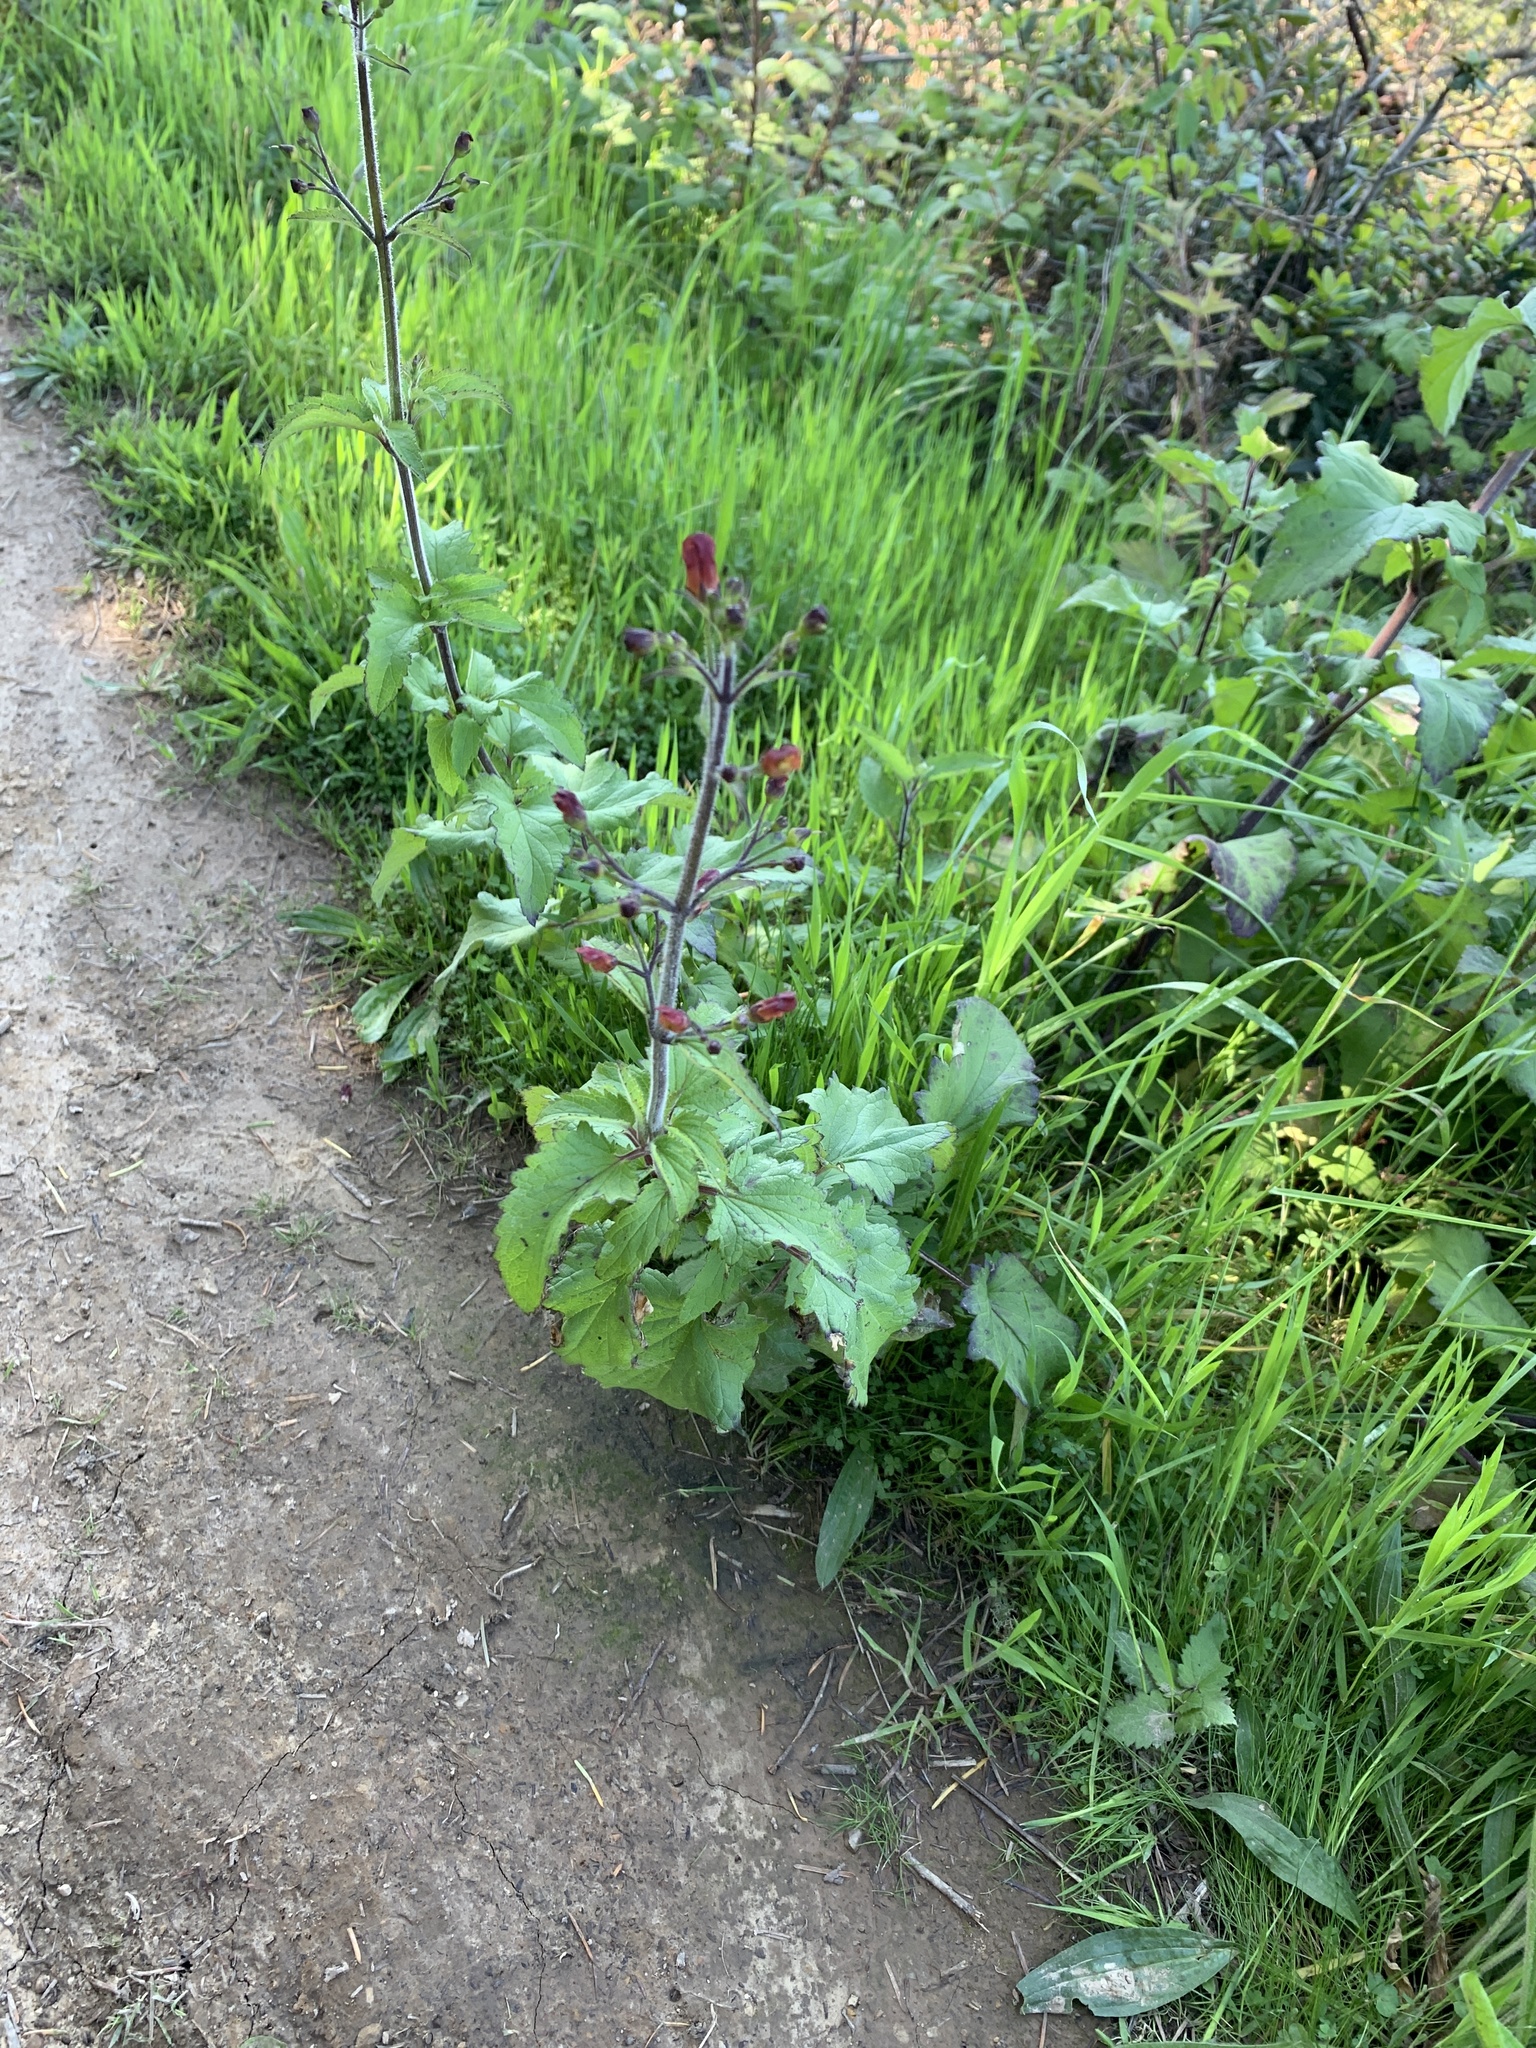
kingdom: Plantae
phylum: Tracheophyta
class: Magnoliopsida
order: Lamiales
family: Scrophulariaceae
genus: Scrophularia
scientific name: Scrophularia californica
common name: California figwort
